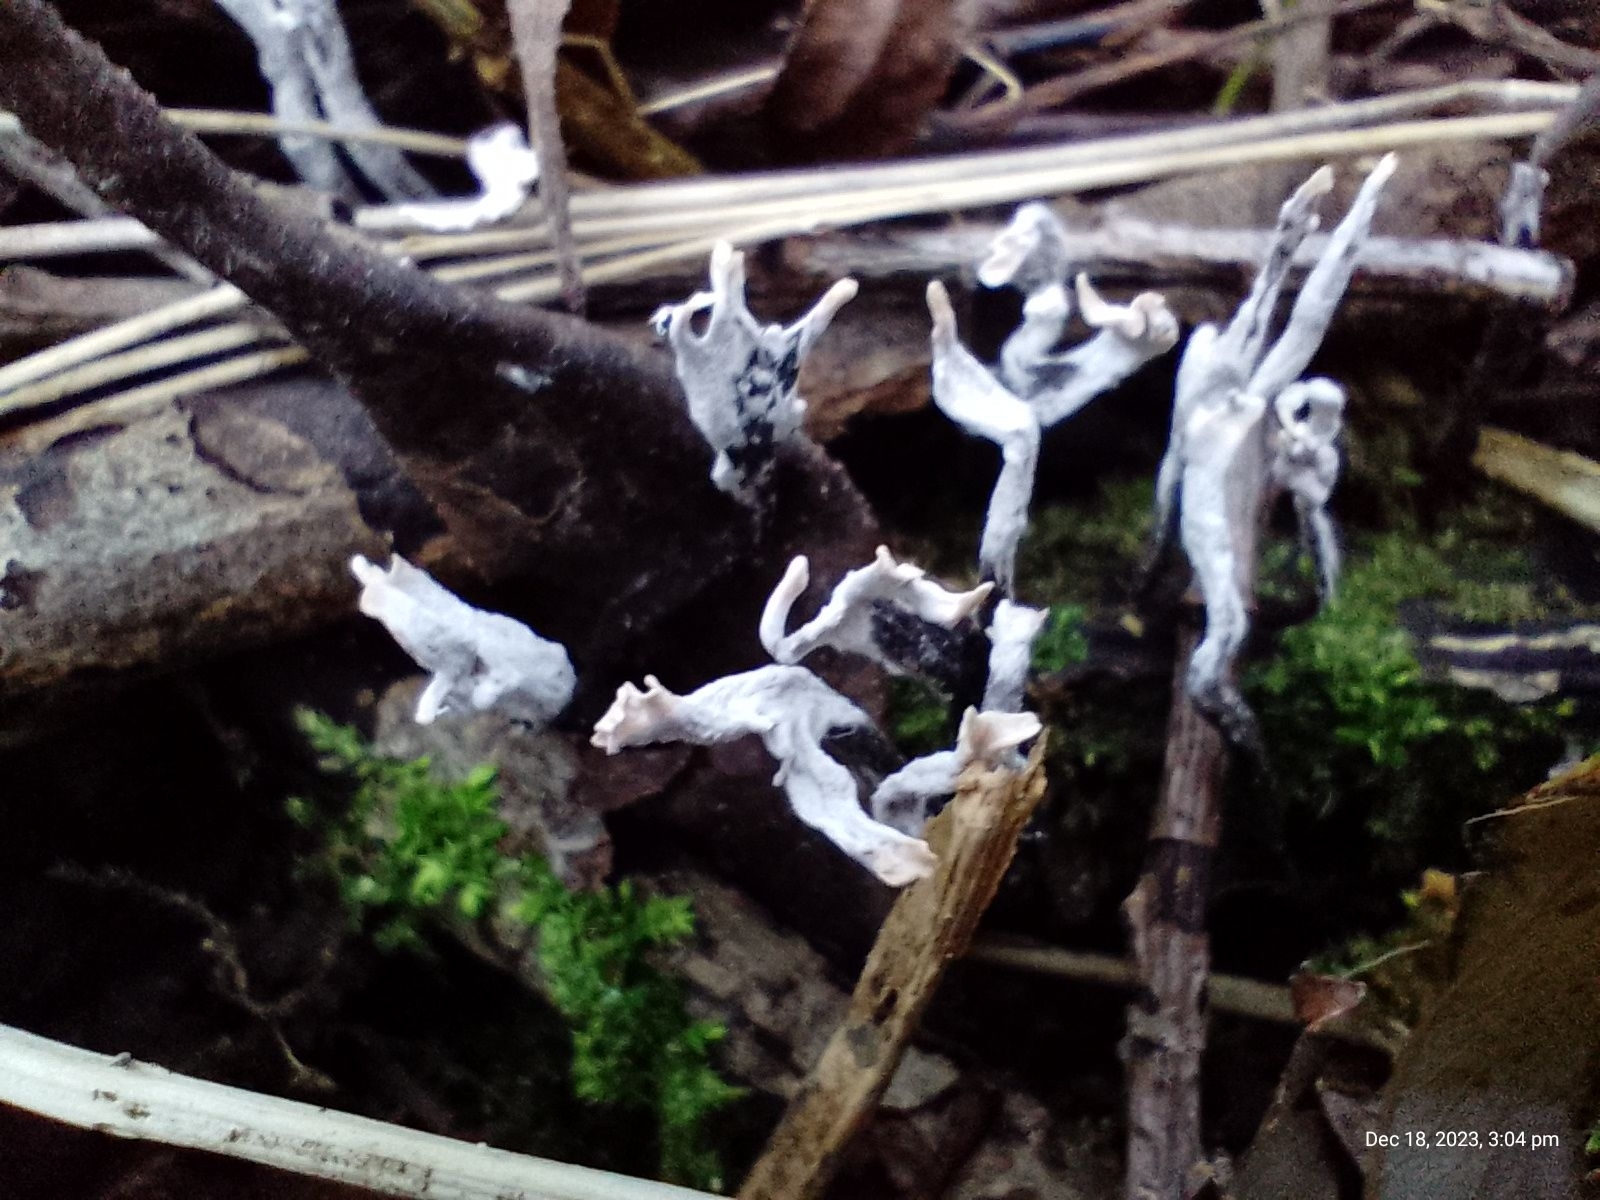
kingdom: Fungi
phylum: Ascomycota
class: Sordariomycetes
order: Xylariales
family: Xylariaceae
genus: Xylaria
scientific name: Xylaria hypoxylon
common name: Candle-snuff fungus
